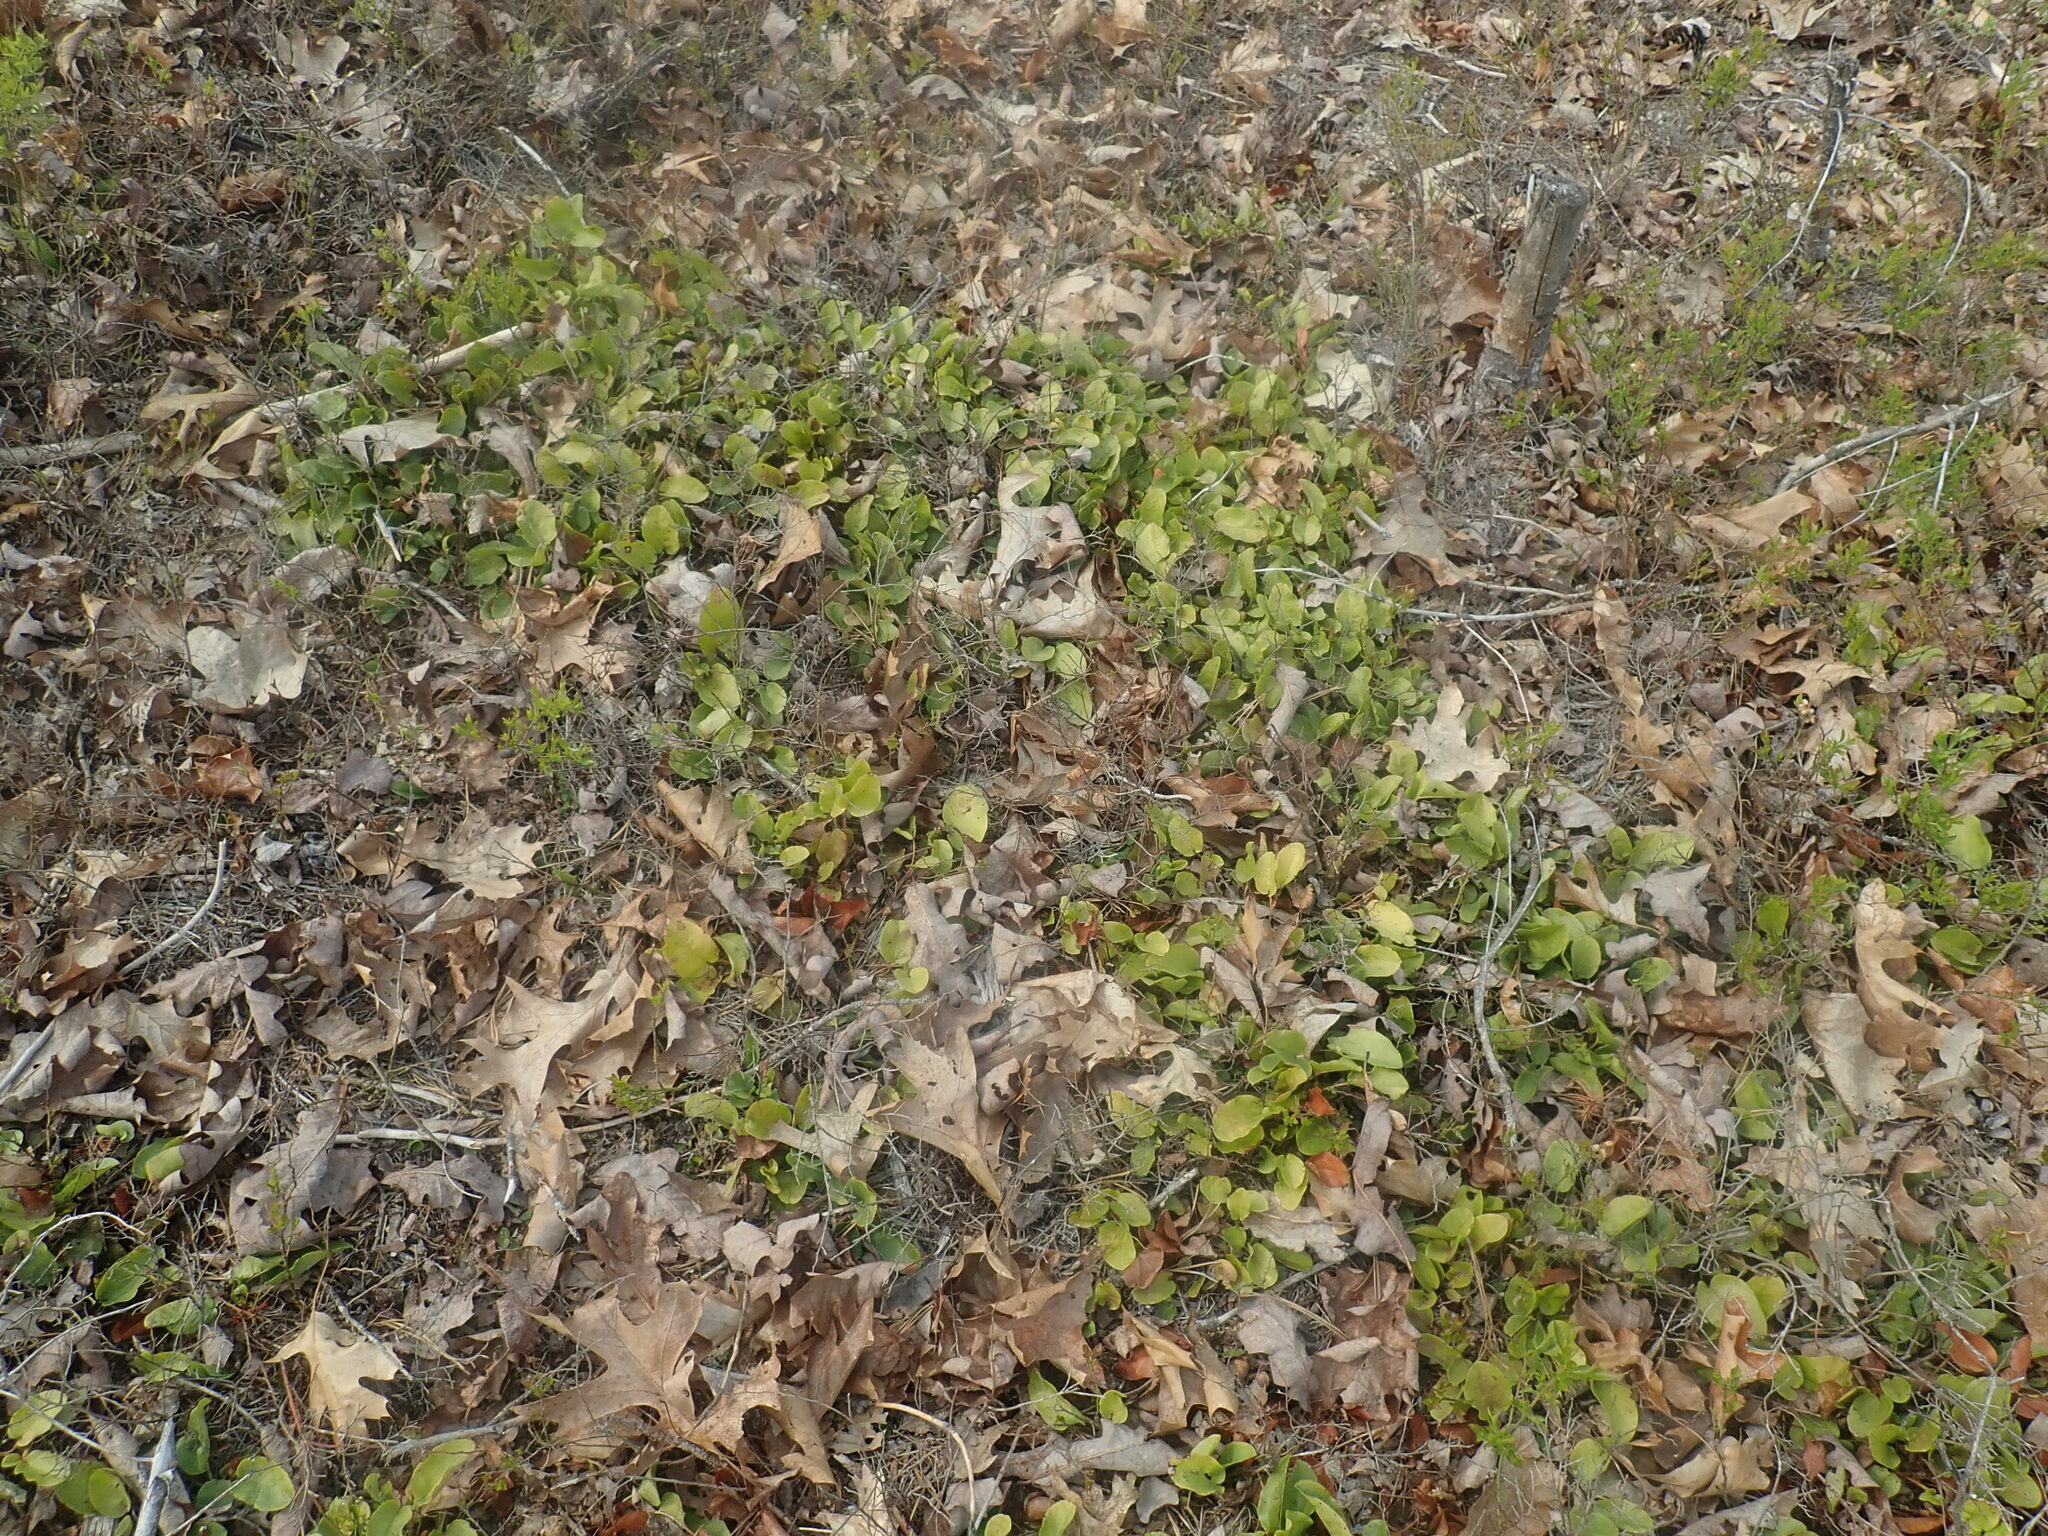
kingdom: Plantae
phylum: Tracheophyta
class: Magnoliopsida
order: Ericales
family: Ericaceae
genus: Epigaea
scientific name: Epigaea repens
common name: Gravelroot
